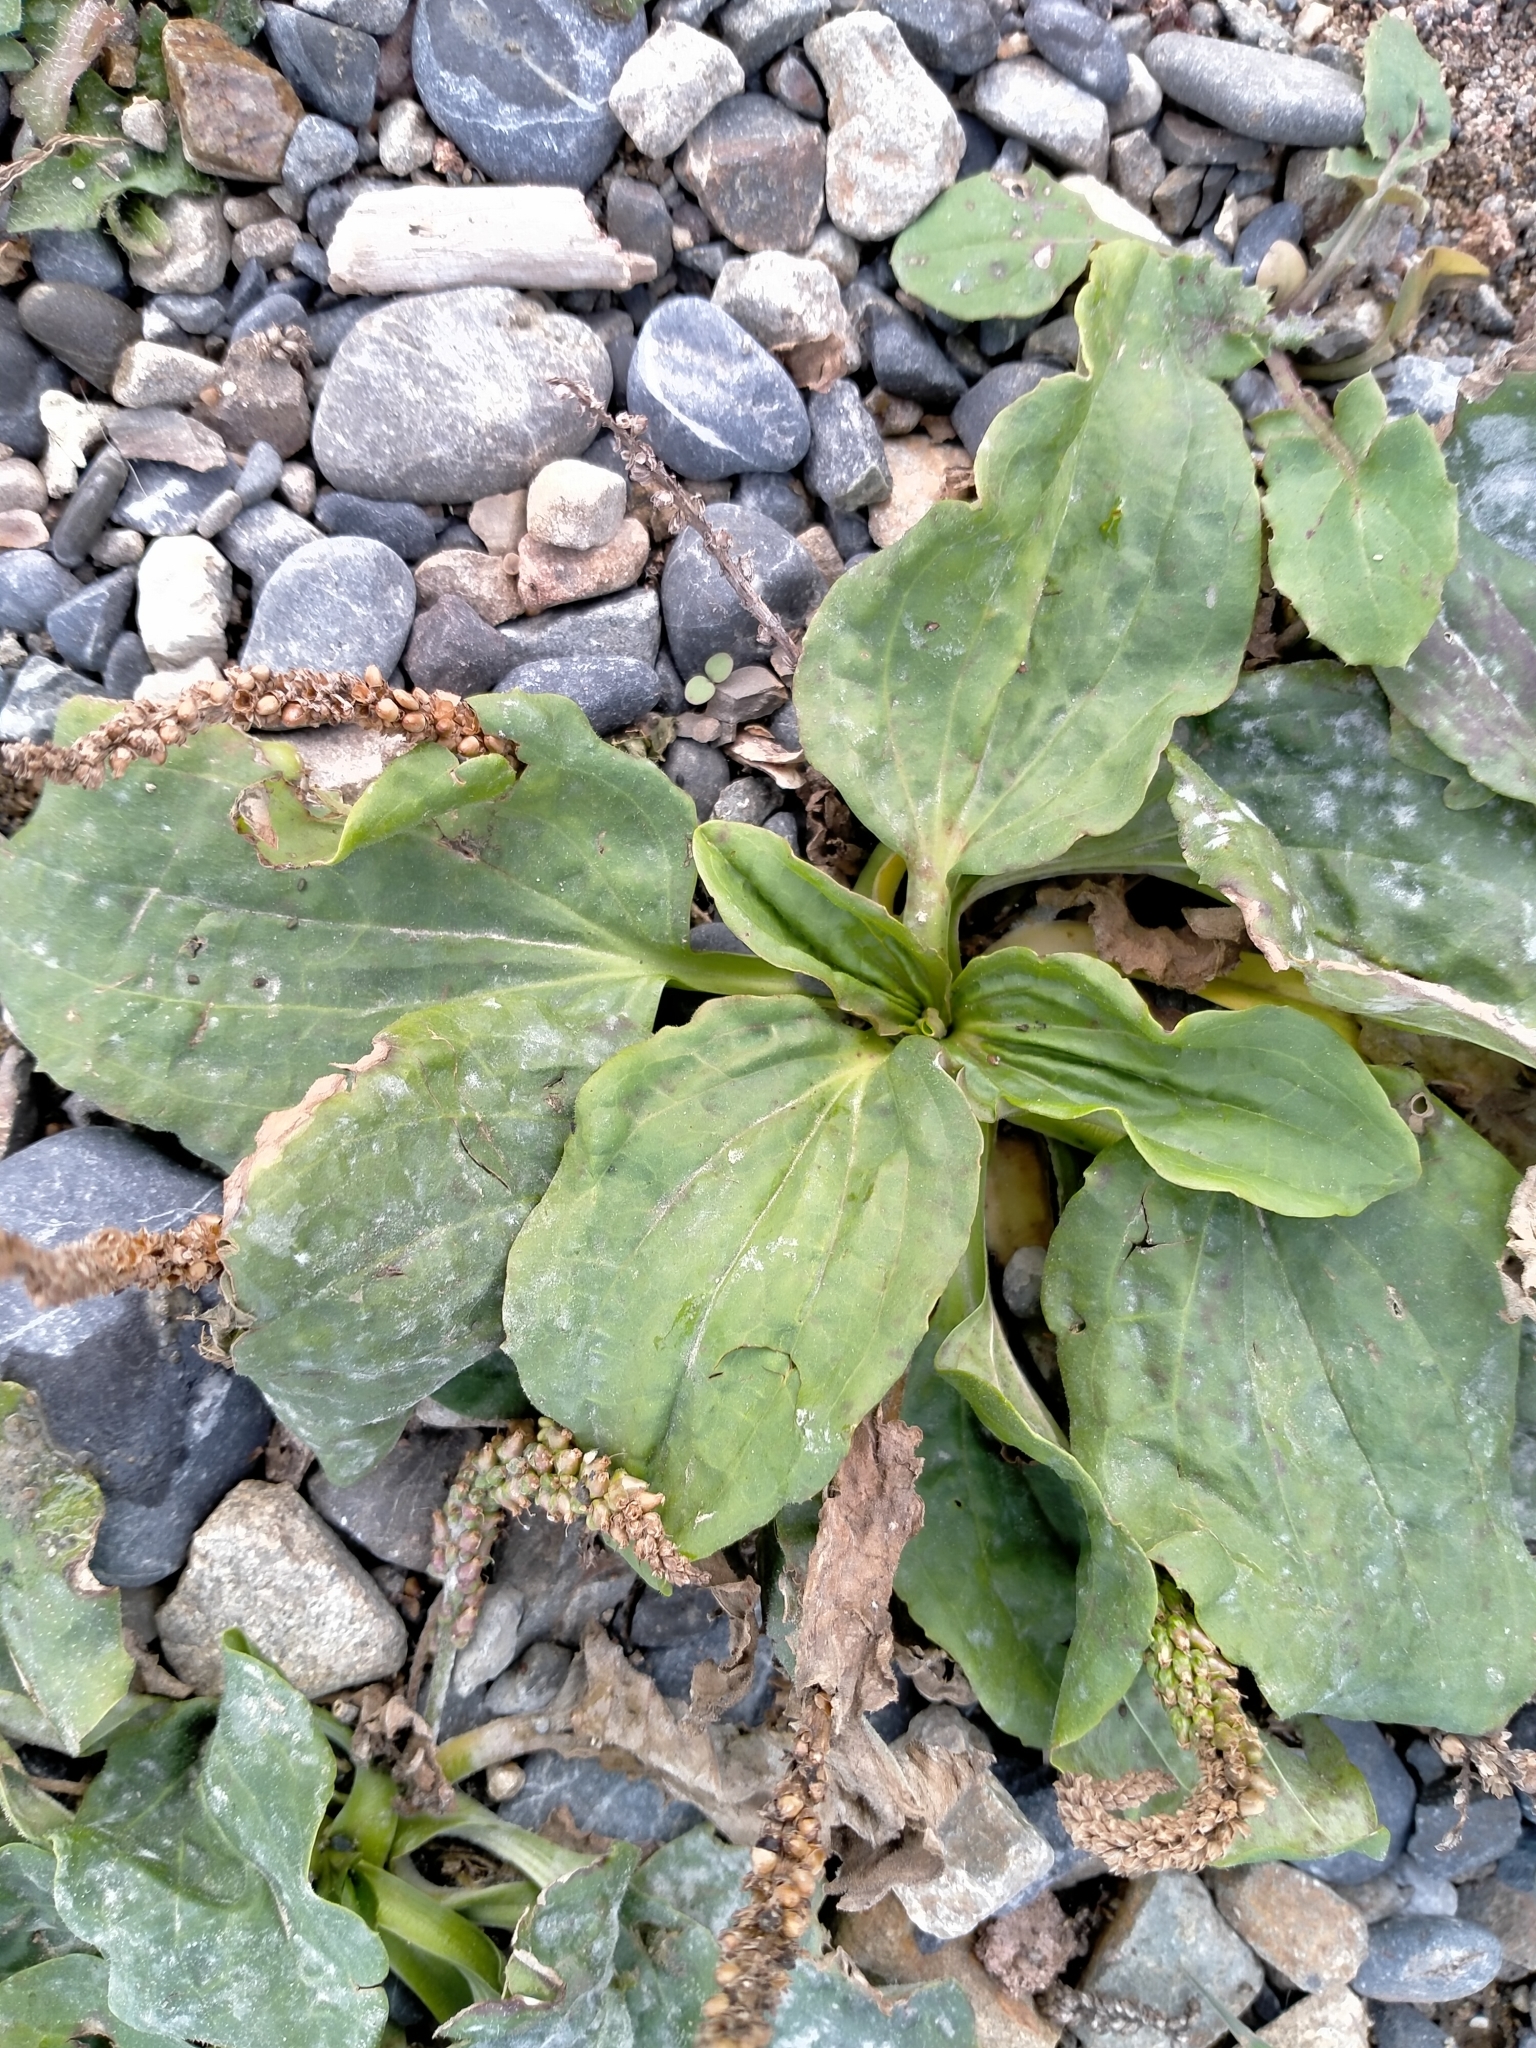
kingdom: Plantae
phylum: Tracheophyta
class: Magnoliopsida
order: Lamiales
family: Plantaginaceae
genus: Plantago
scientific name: Plantago major
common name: Common plantain
